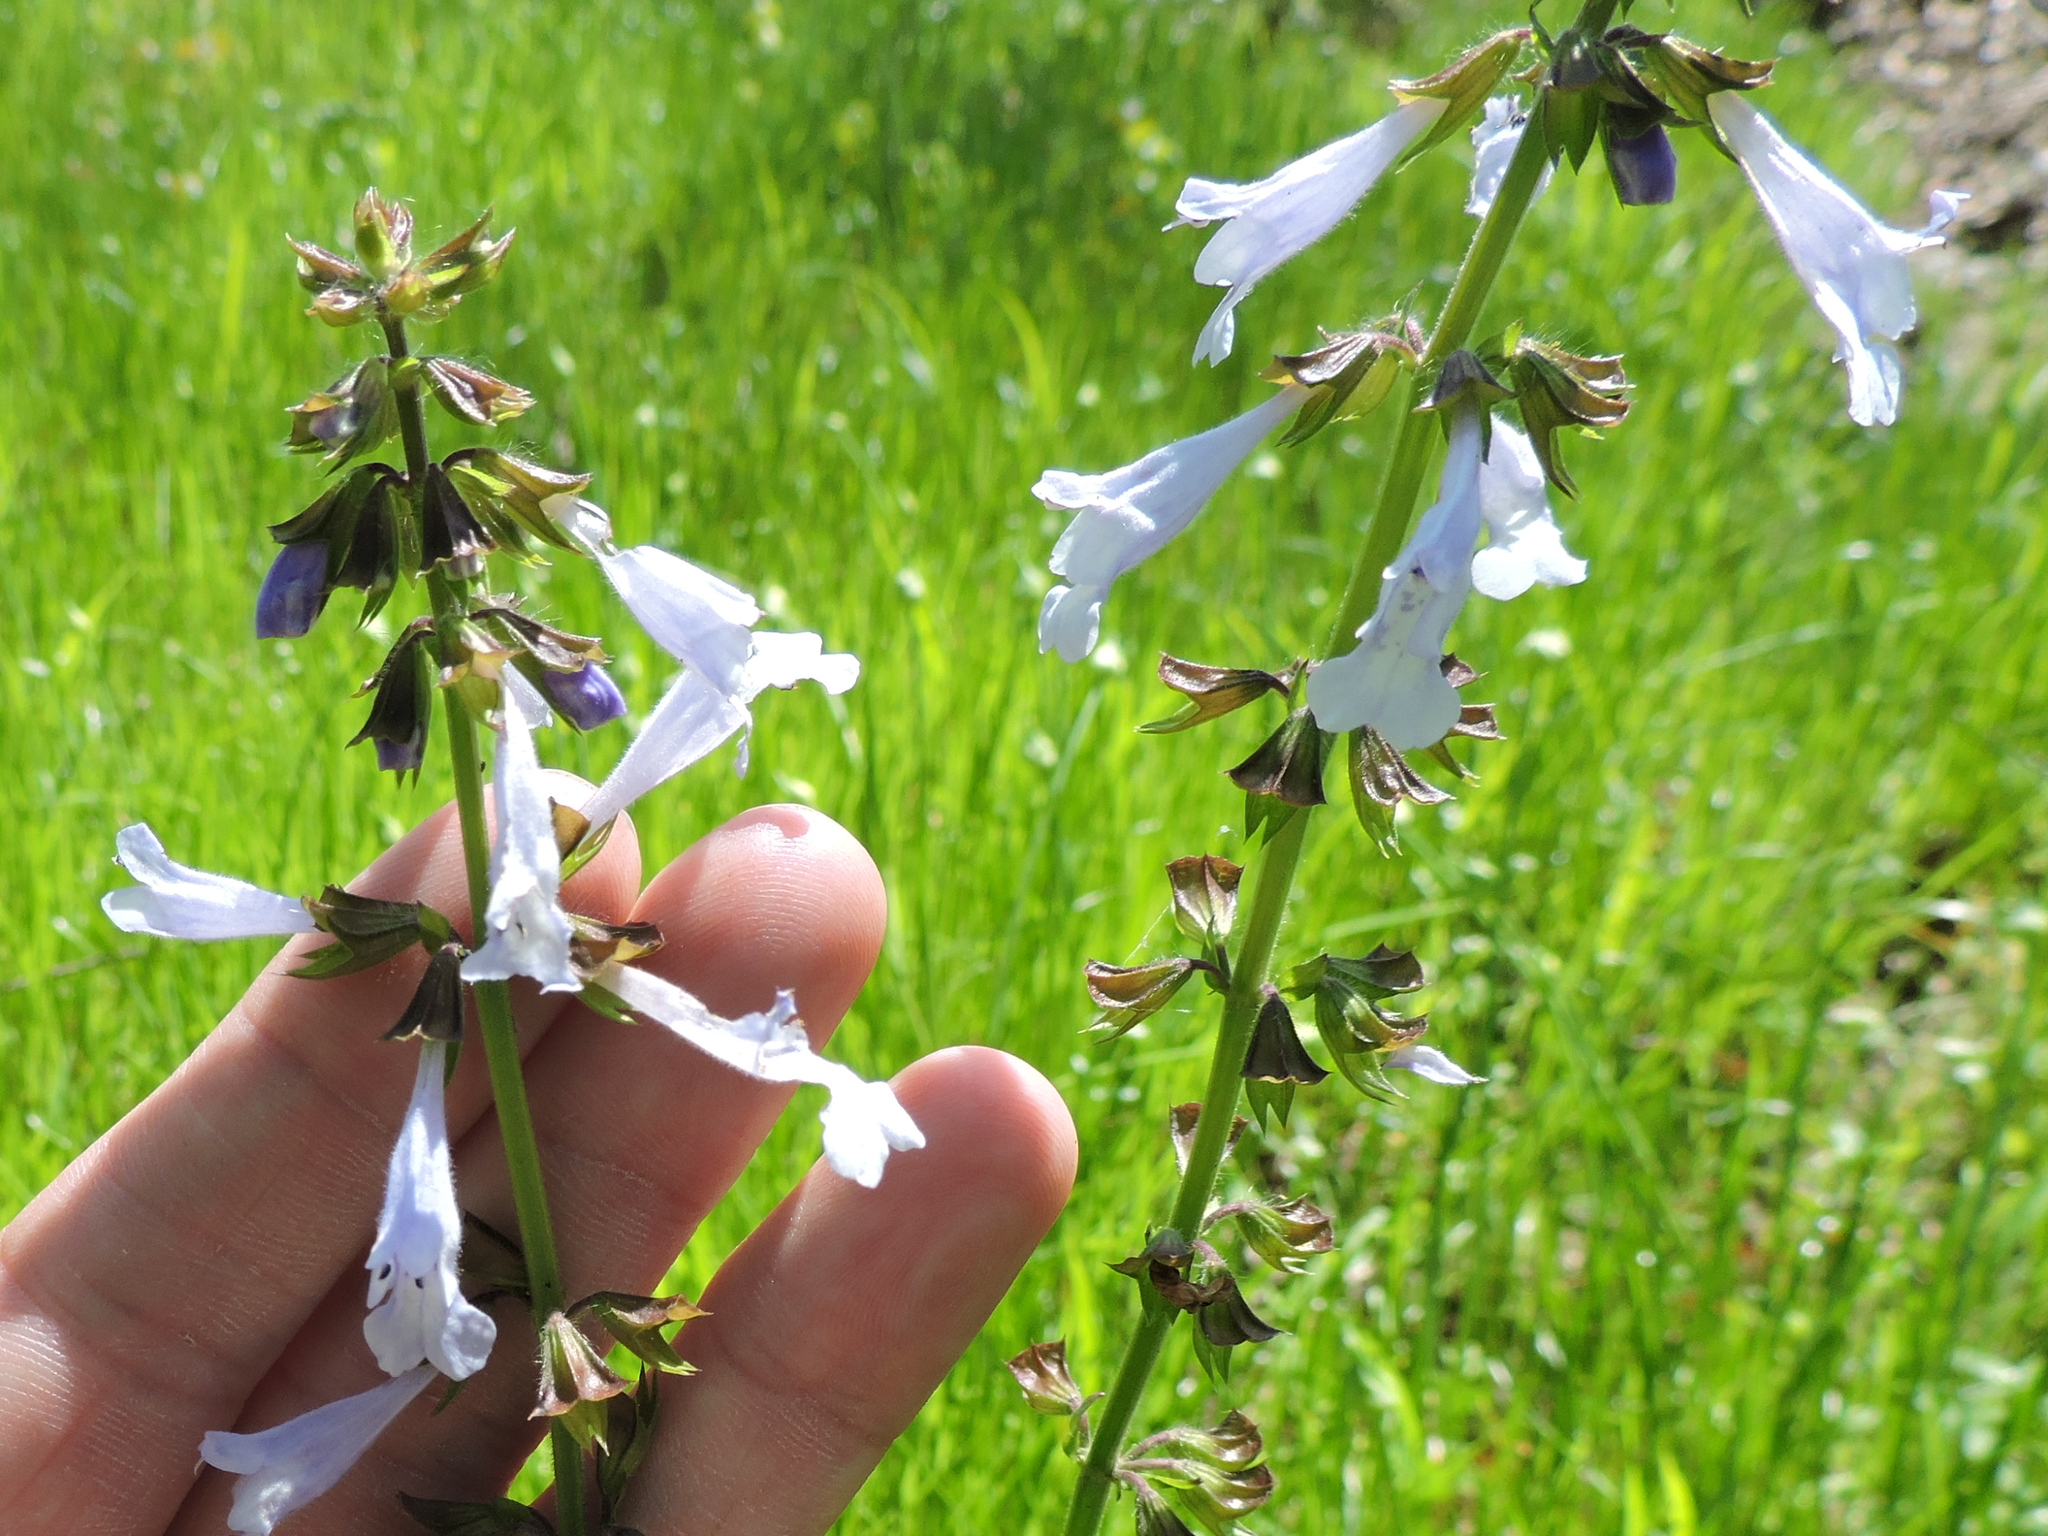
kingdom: Plantae
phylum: Tracheophyta
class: Magnoliopsida
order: Lamiales
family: Lamiaceae
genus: Salvia
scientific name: Salvia lyrata
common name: Cancerweed
